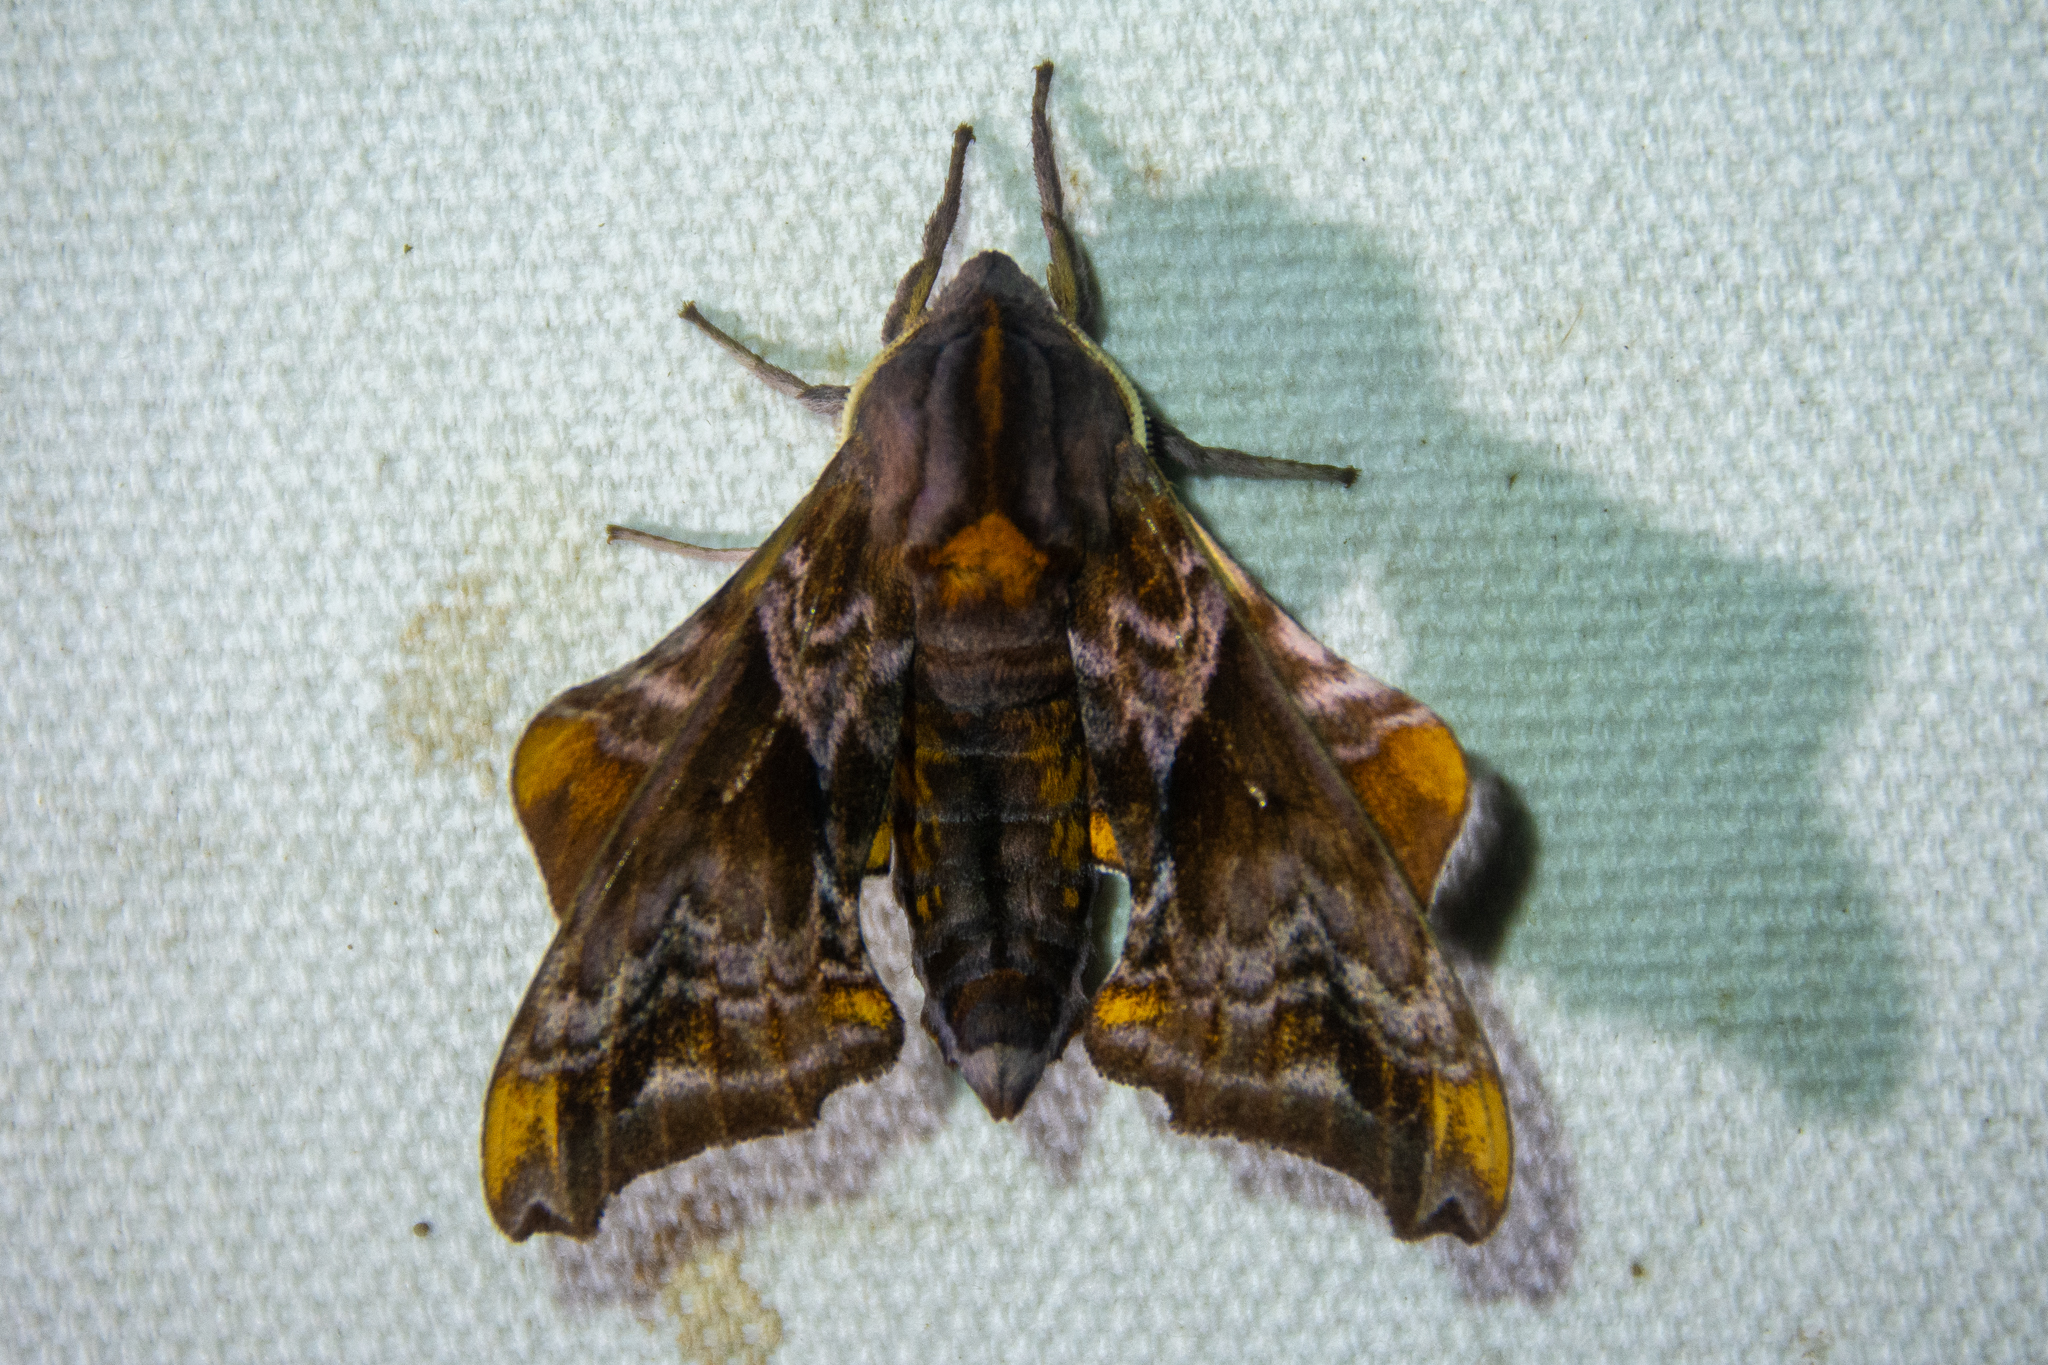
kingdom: Animalia
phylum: Arthropoda
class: Insecta
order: Lepidoptera
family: Sphingidae
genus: Paonias
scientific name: Paonias myops
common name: Small-eyed sphinx
